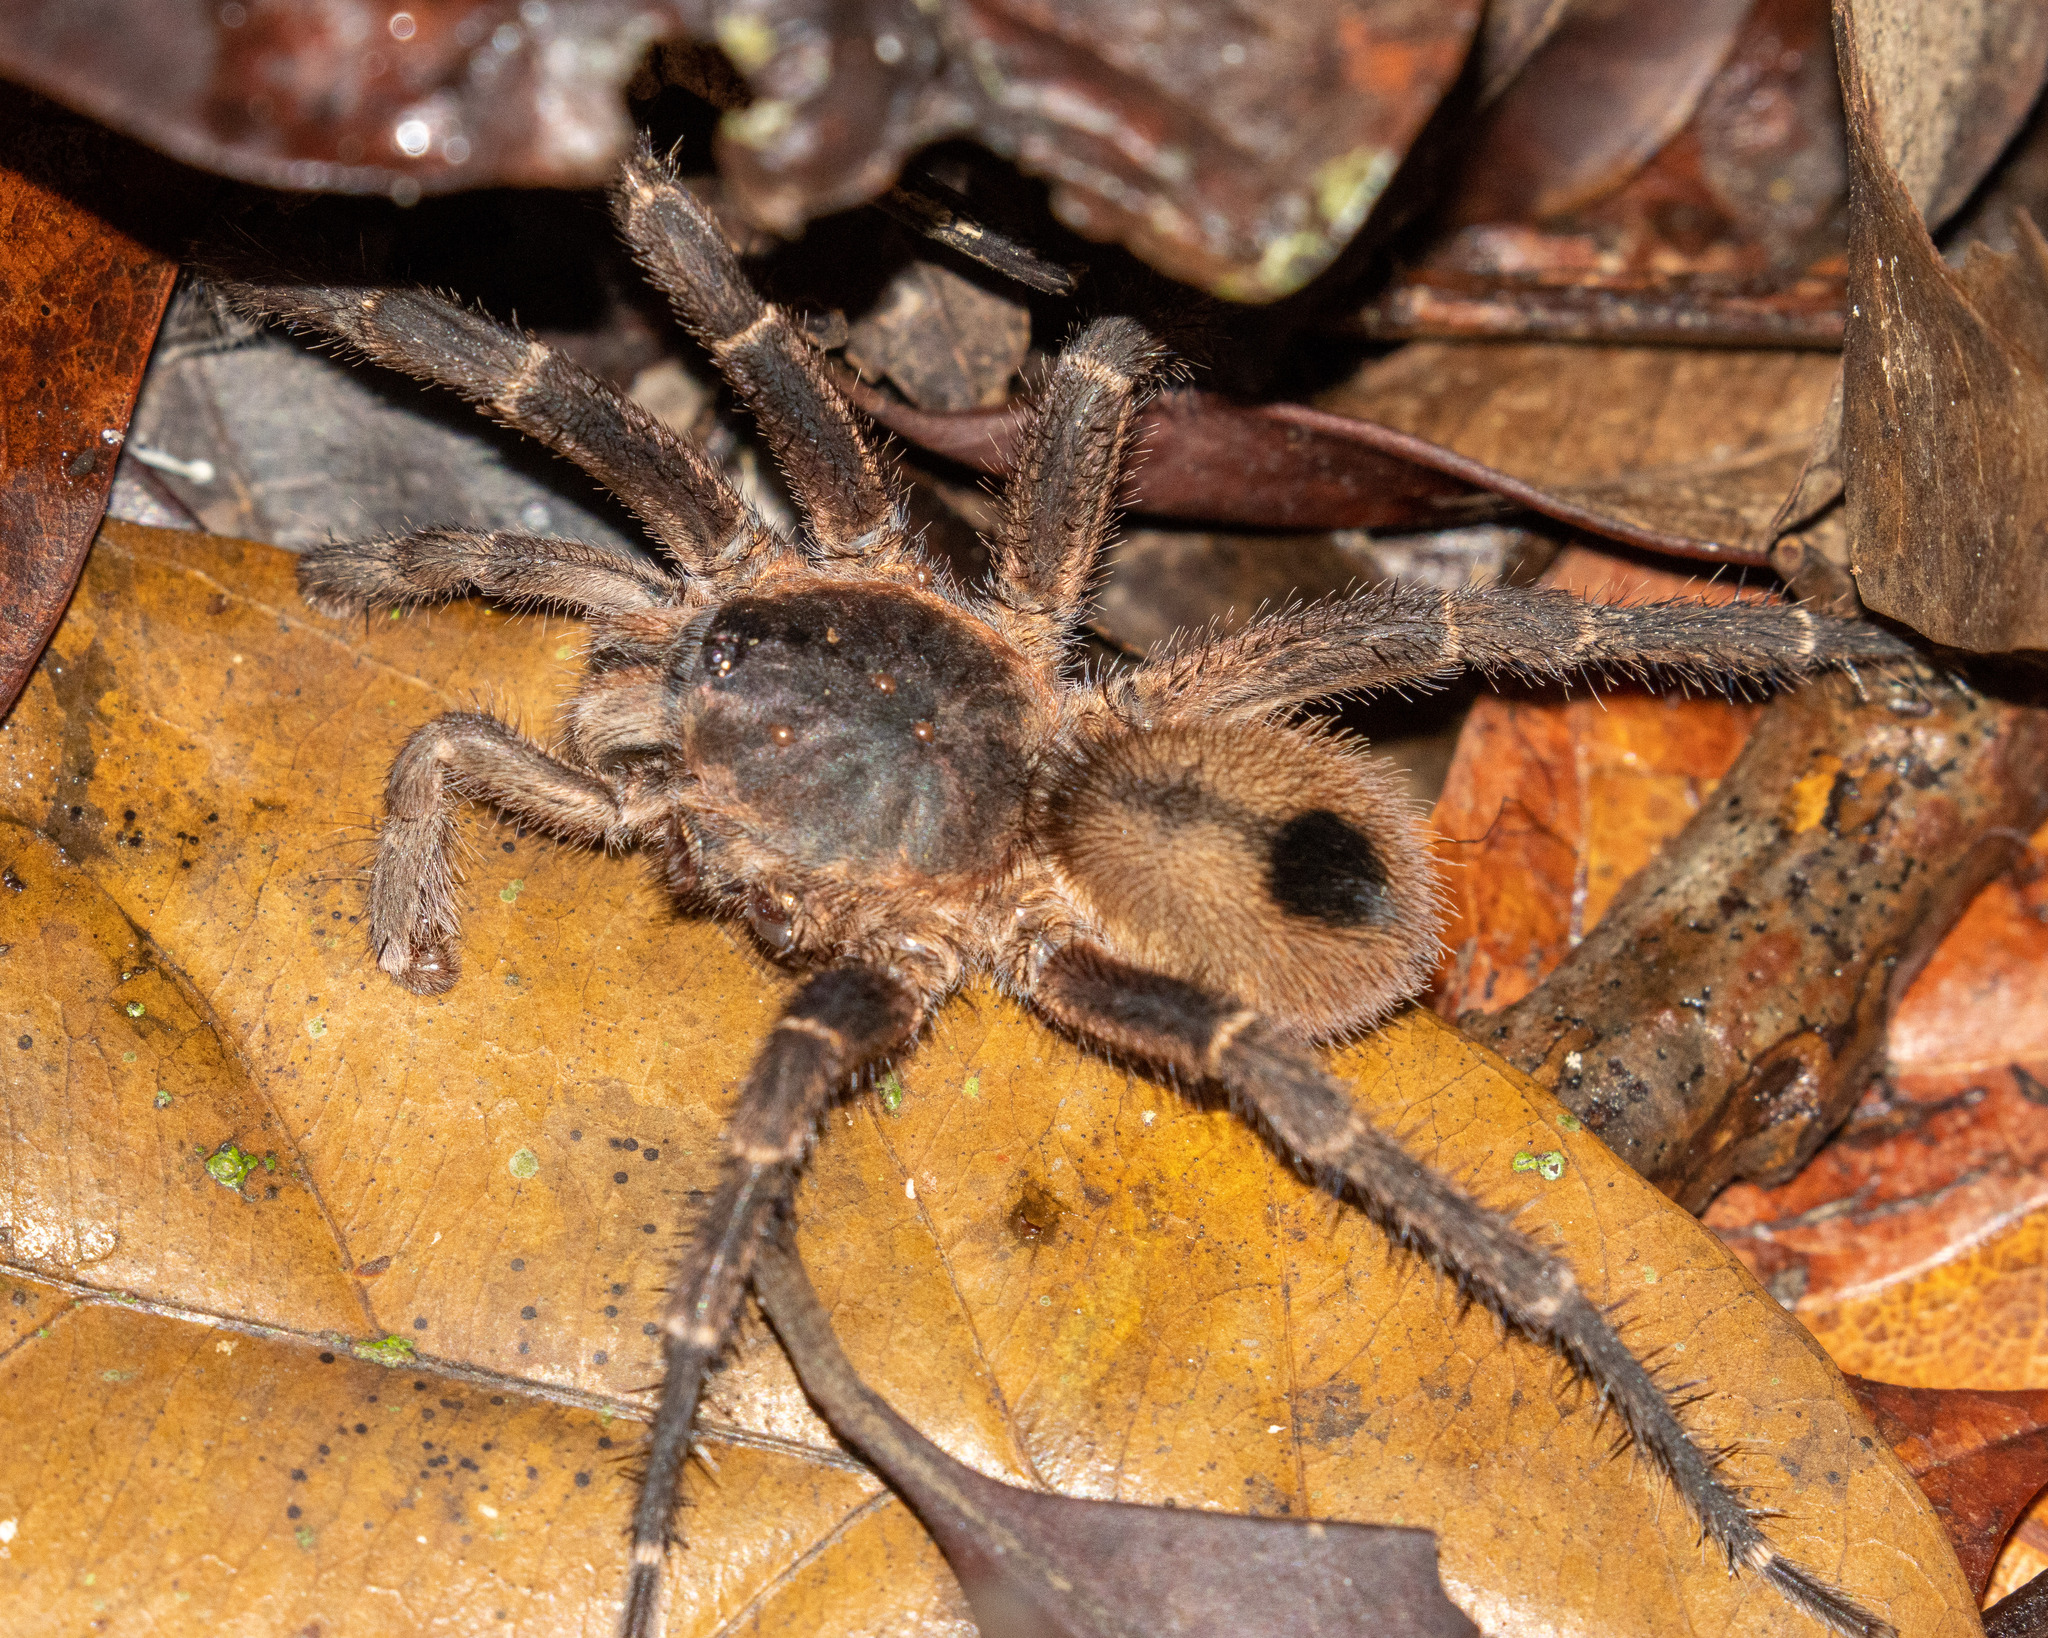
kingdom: Animalia
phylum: Arthropoda
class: Arachnida
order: Araneae
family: Theraphosidae
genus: Tmesiphantes
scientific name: Tmesiphantes nordestinus
